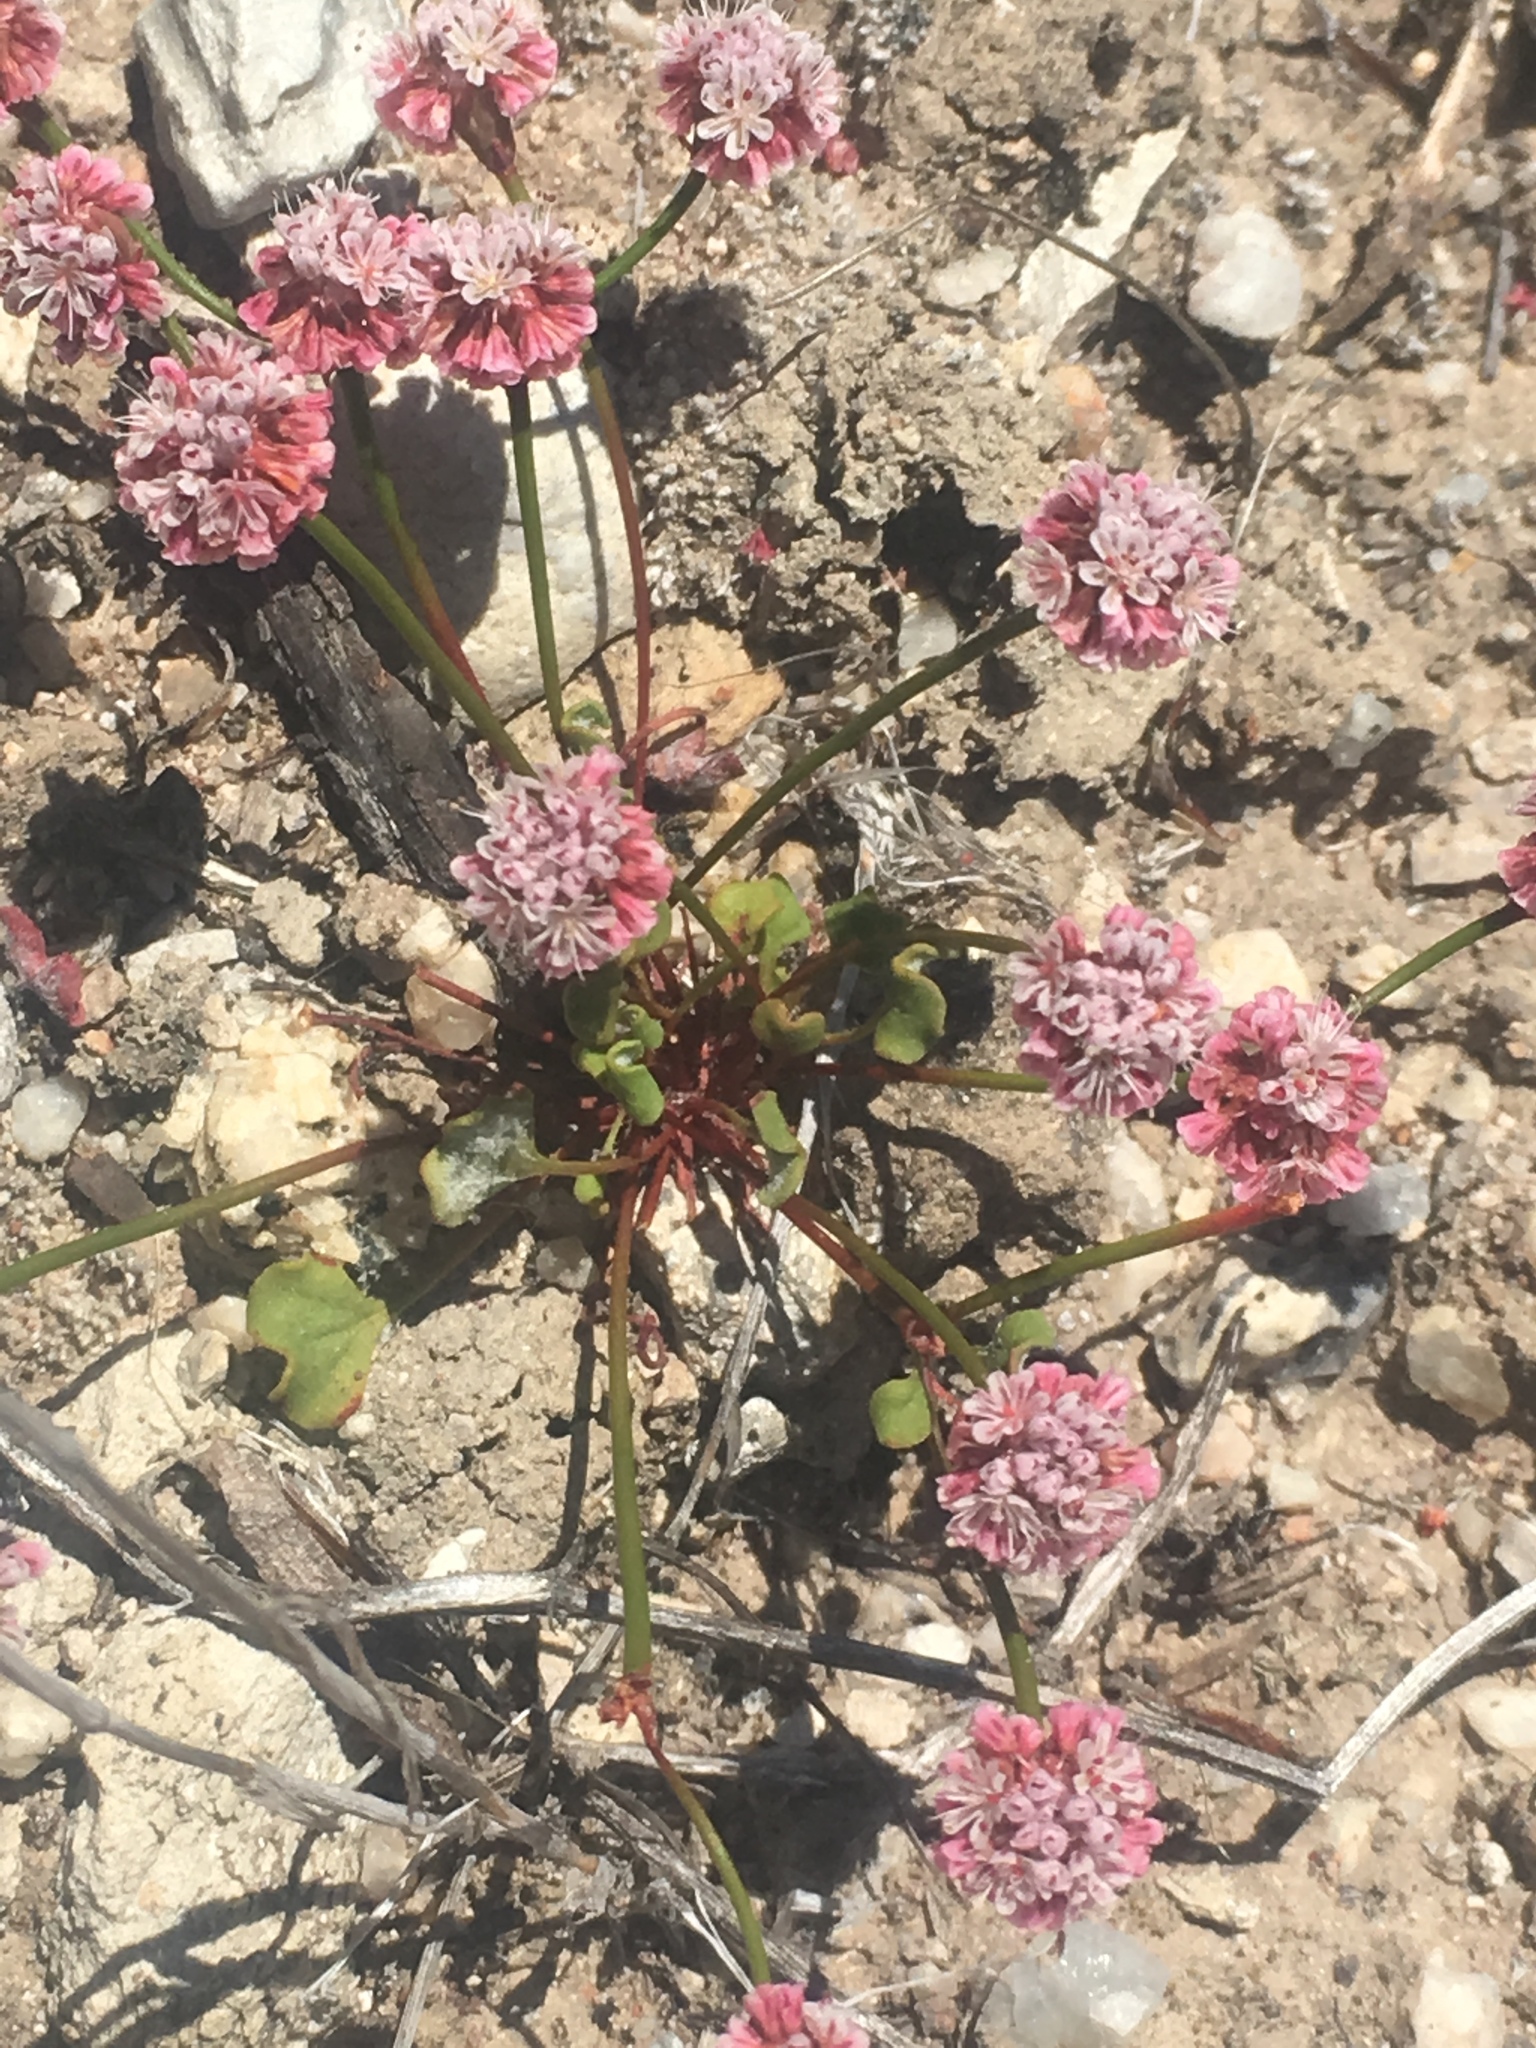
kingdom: Plantae
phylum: Tracheophyta
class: Magnoliopsida
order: Caryophyllales
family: Polygonaceae
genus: Eriogonum
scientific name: Eriogonum nortonii
